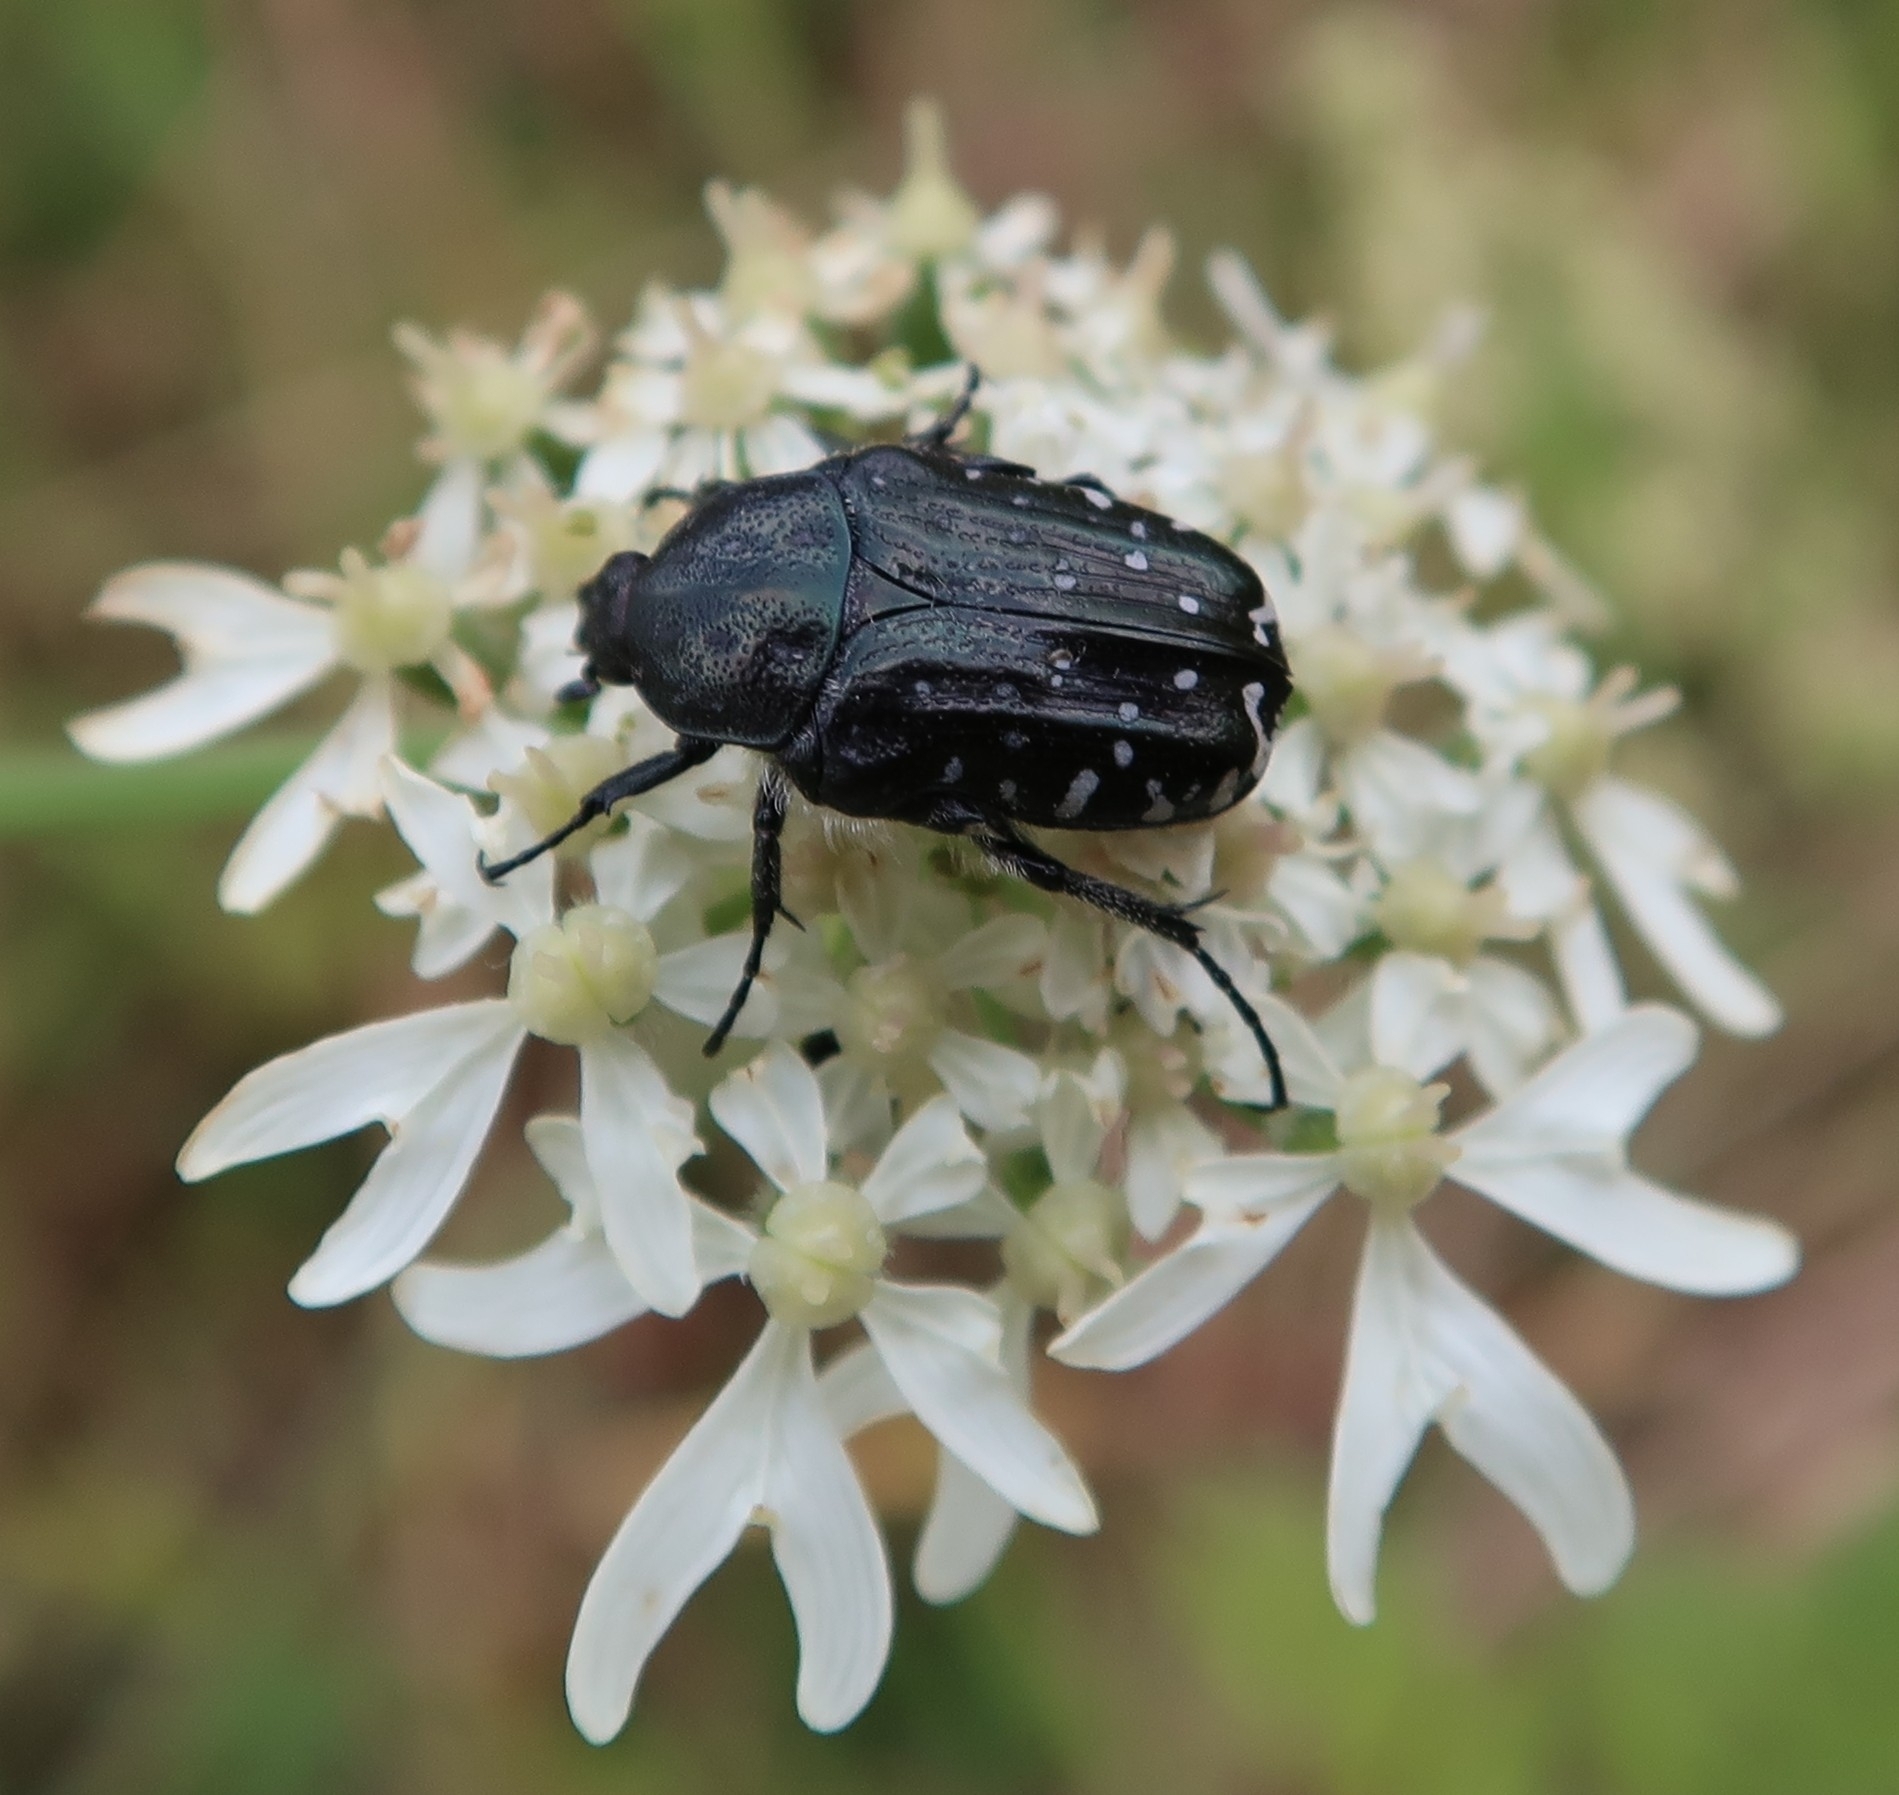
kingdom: Animalia
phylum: Arthropoda
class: Insecta
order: Coleoptera
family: Scarabaeidae
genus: Oxythyrea
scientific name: Oxythyrea funesta
